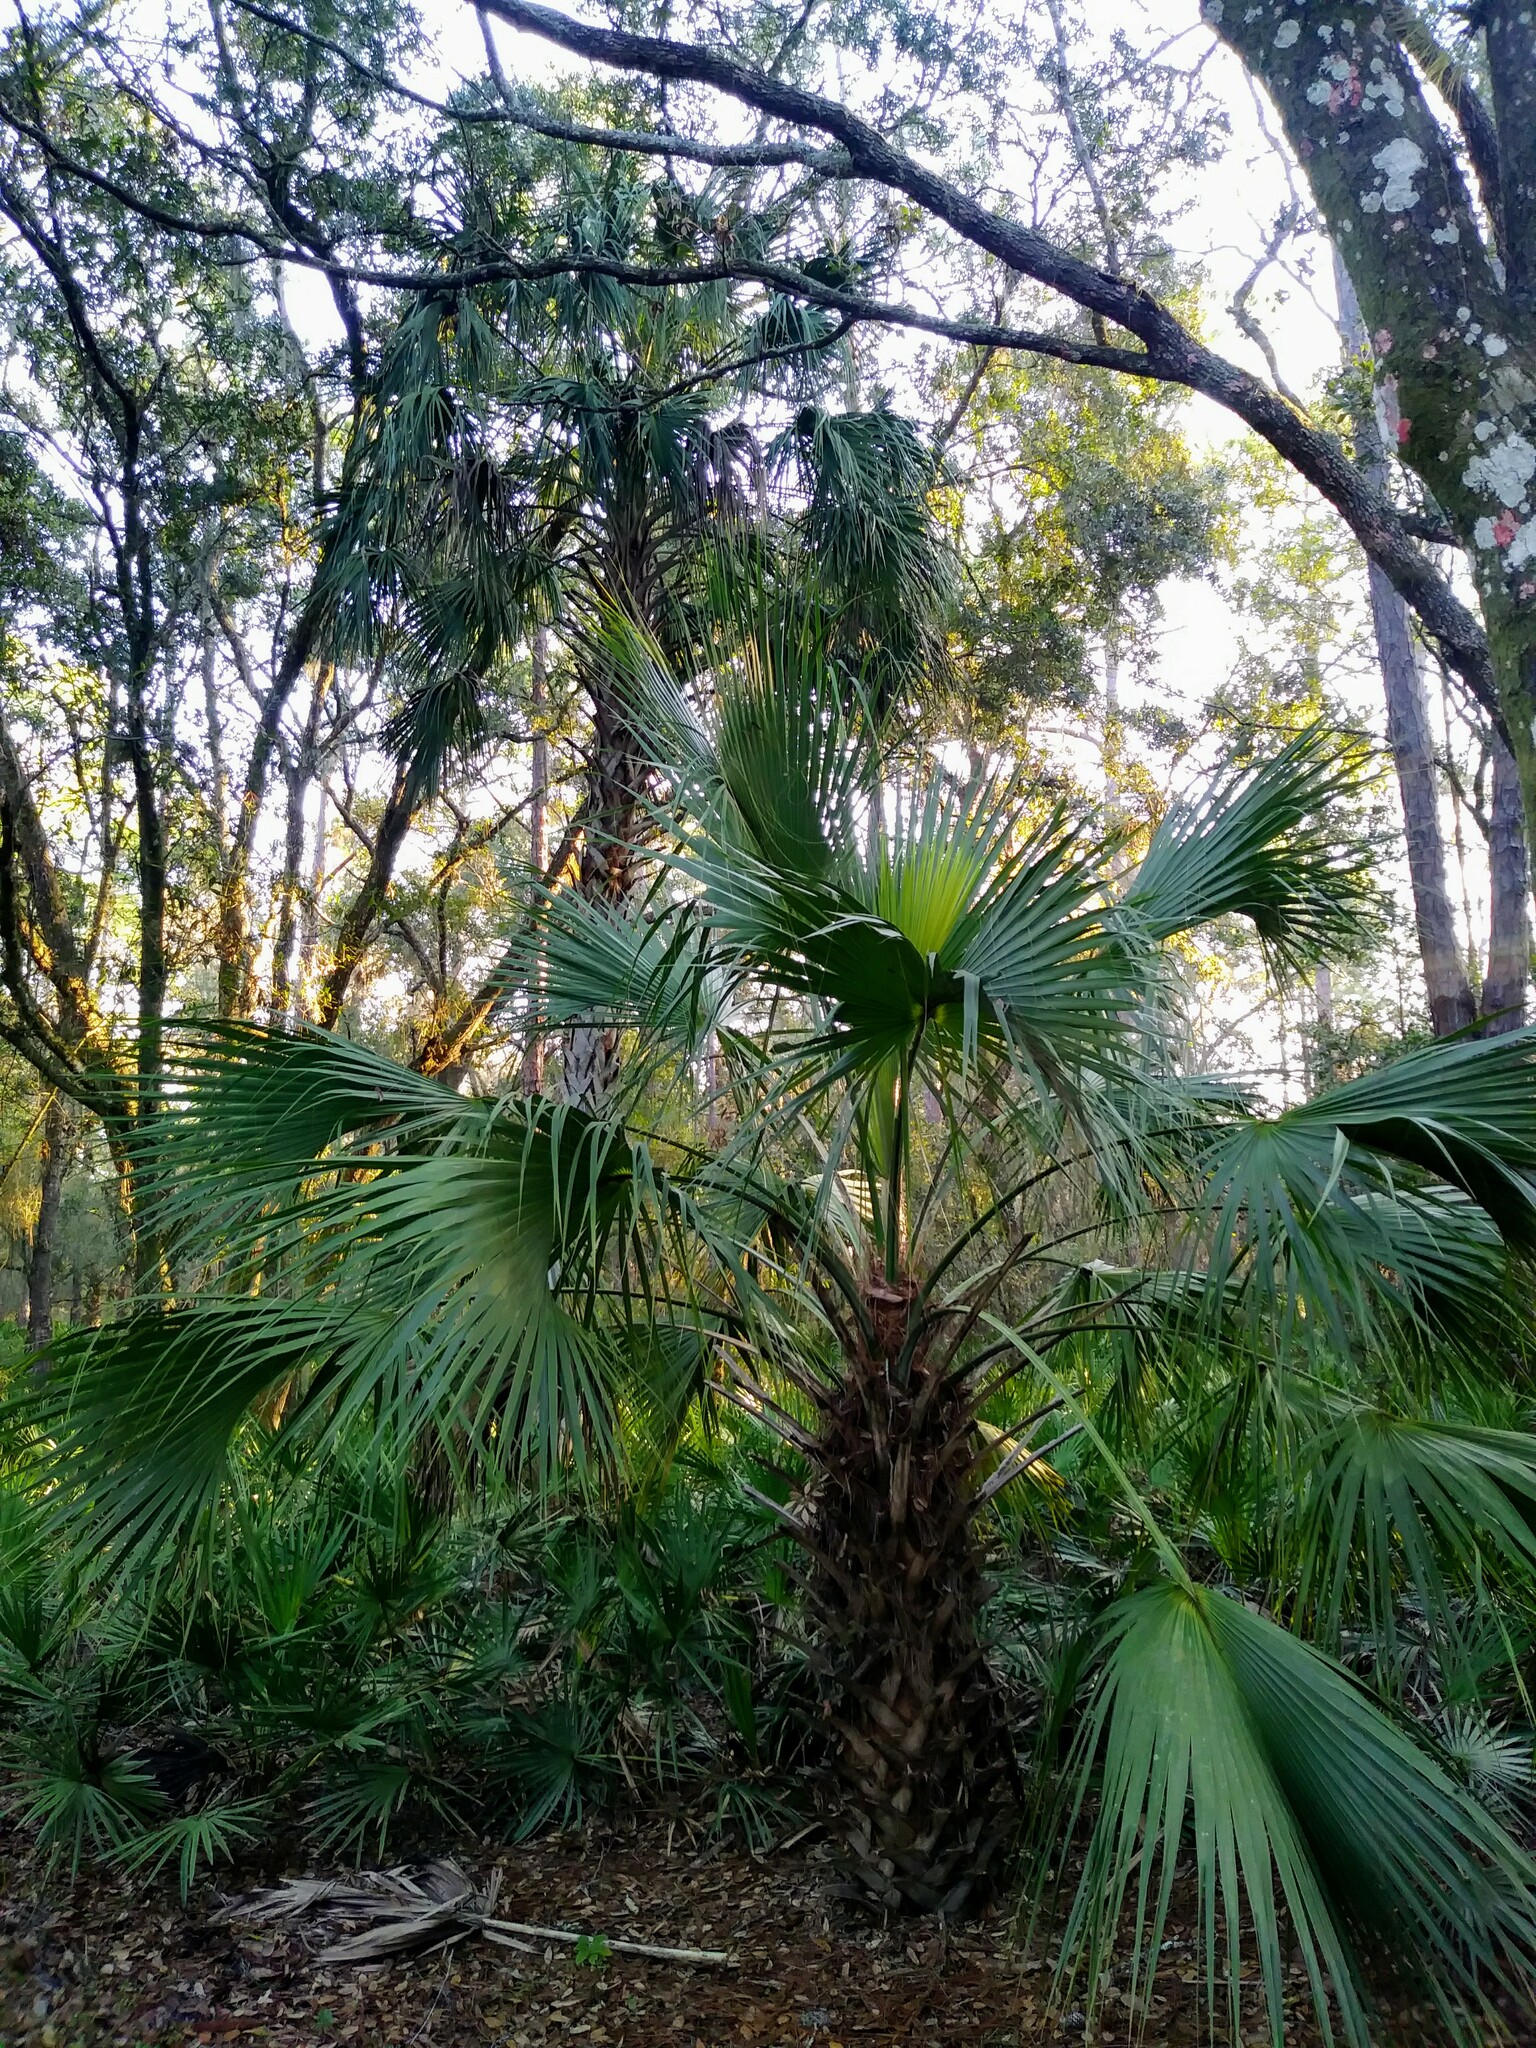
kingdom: Plantae
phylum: Tracheophyta
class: Liliopsida
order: Arecales
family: Arecaceae
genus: Sabal
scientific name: Sabal palmetto
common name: Blue palmetto
